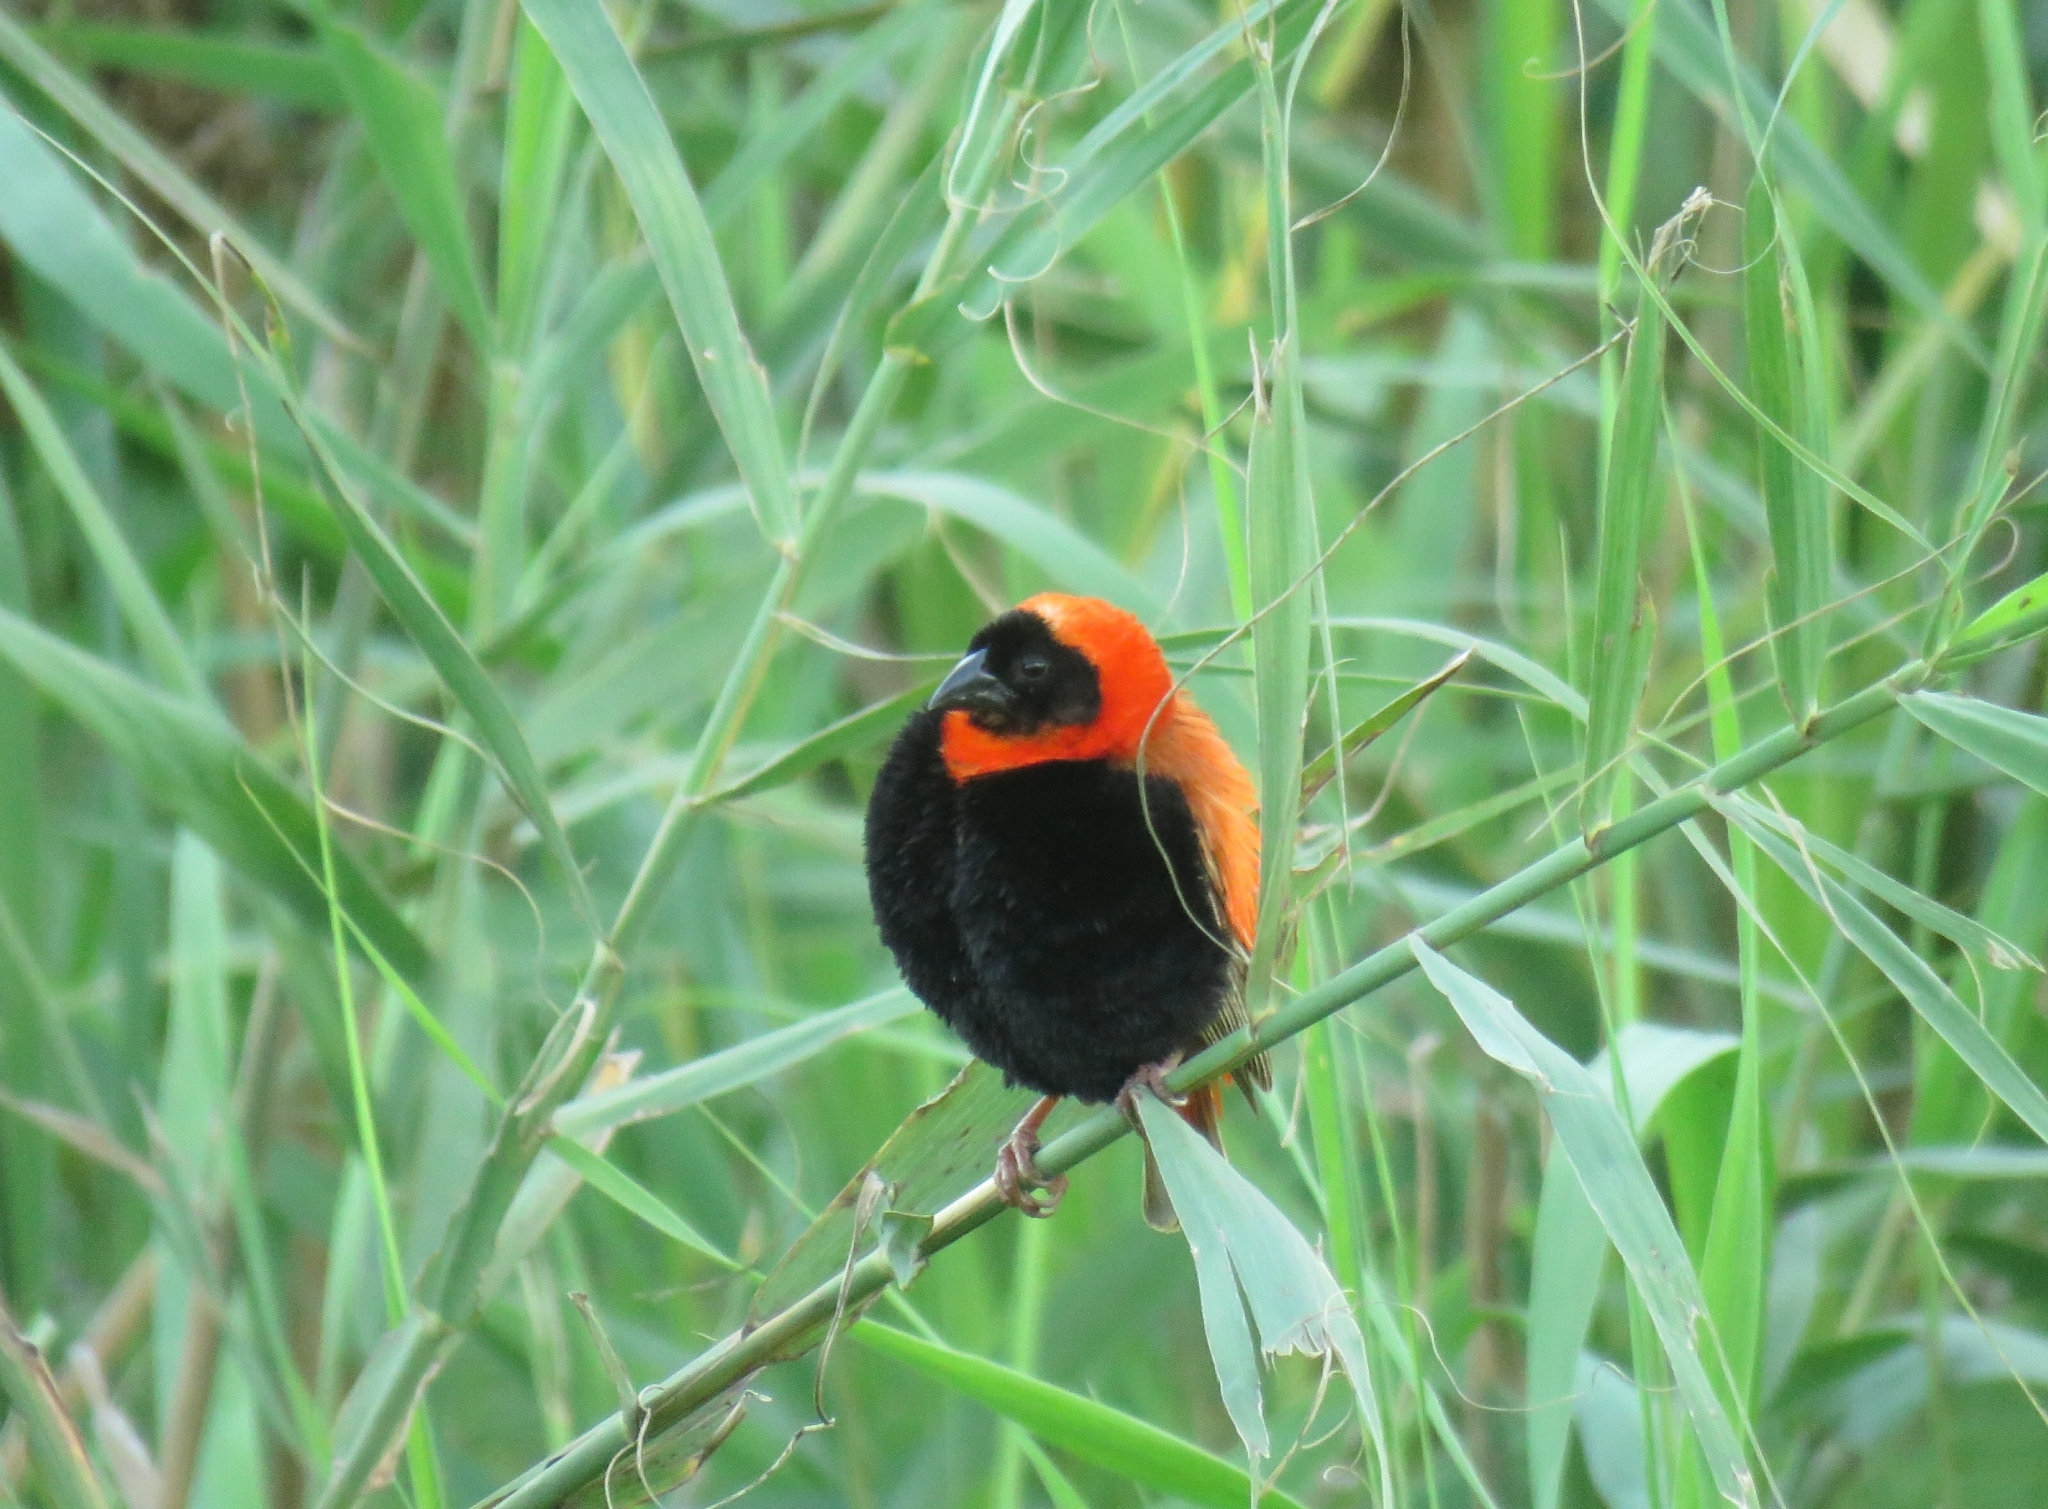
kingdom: Animalia
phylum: Chordata
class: Aves
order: Passeriformes
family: Ploceidae
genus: Euplectes
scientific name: Euplectes orix
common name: Southern red bishop
